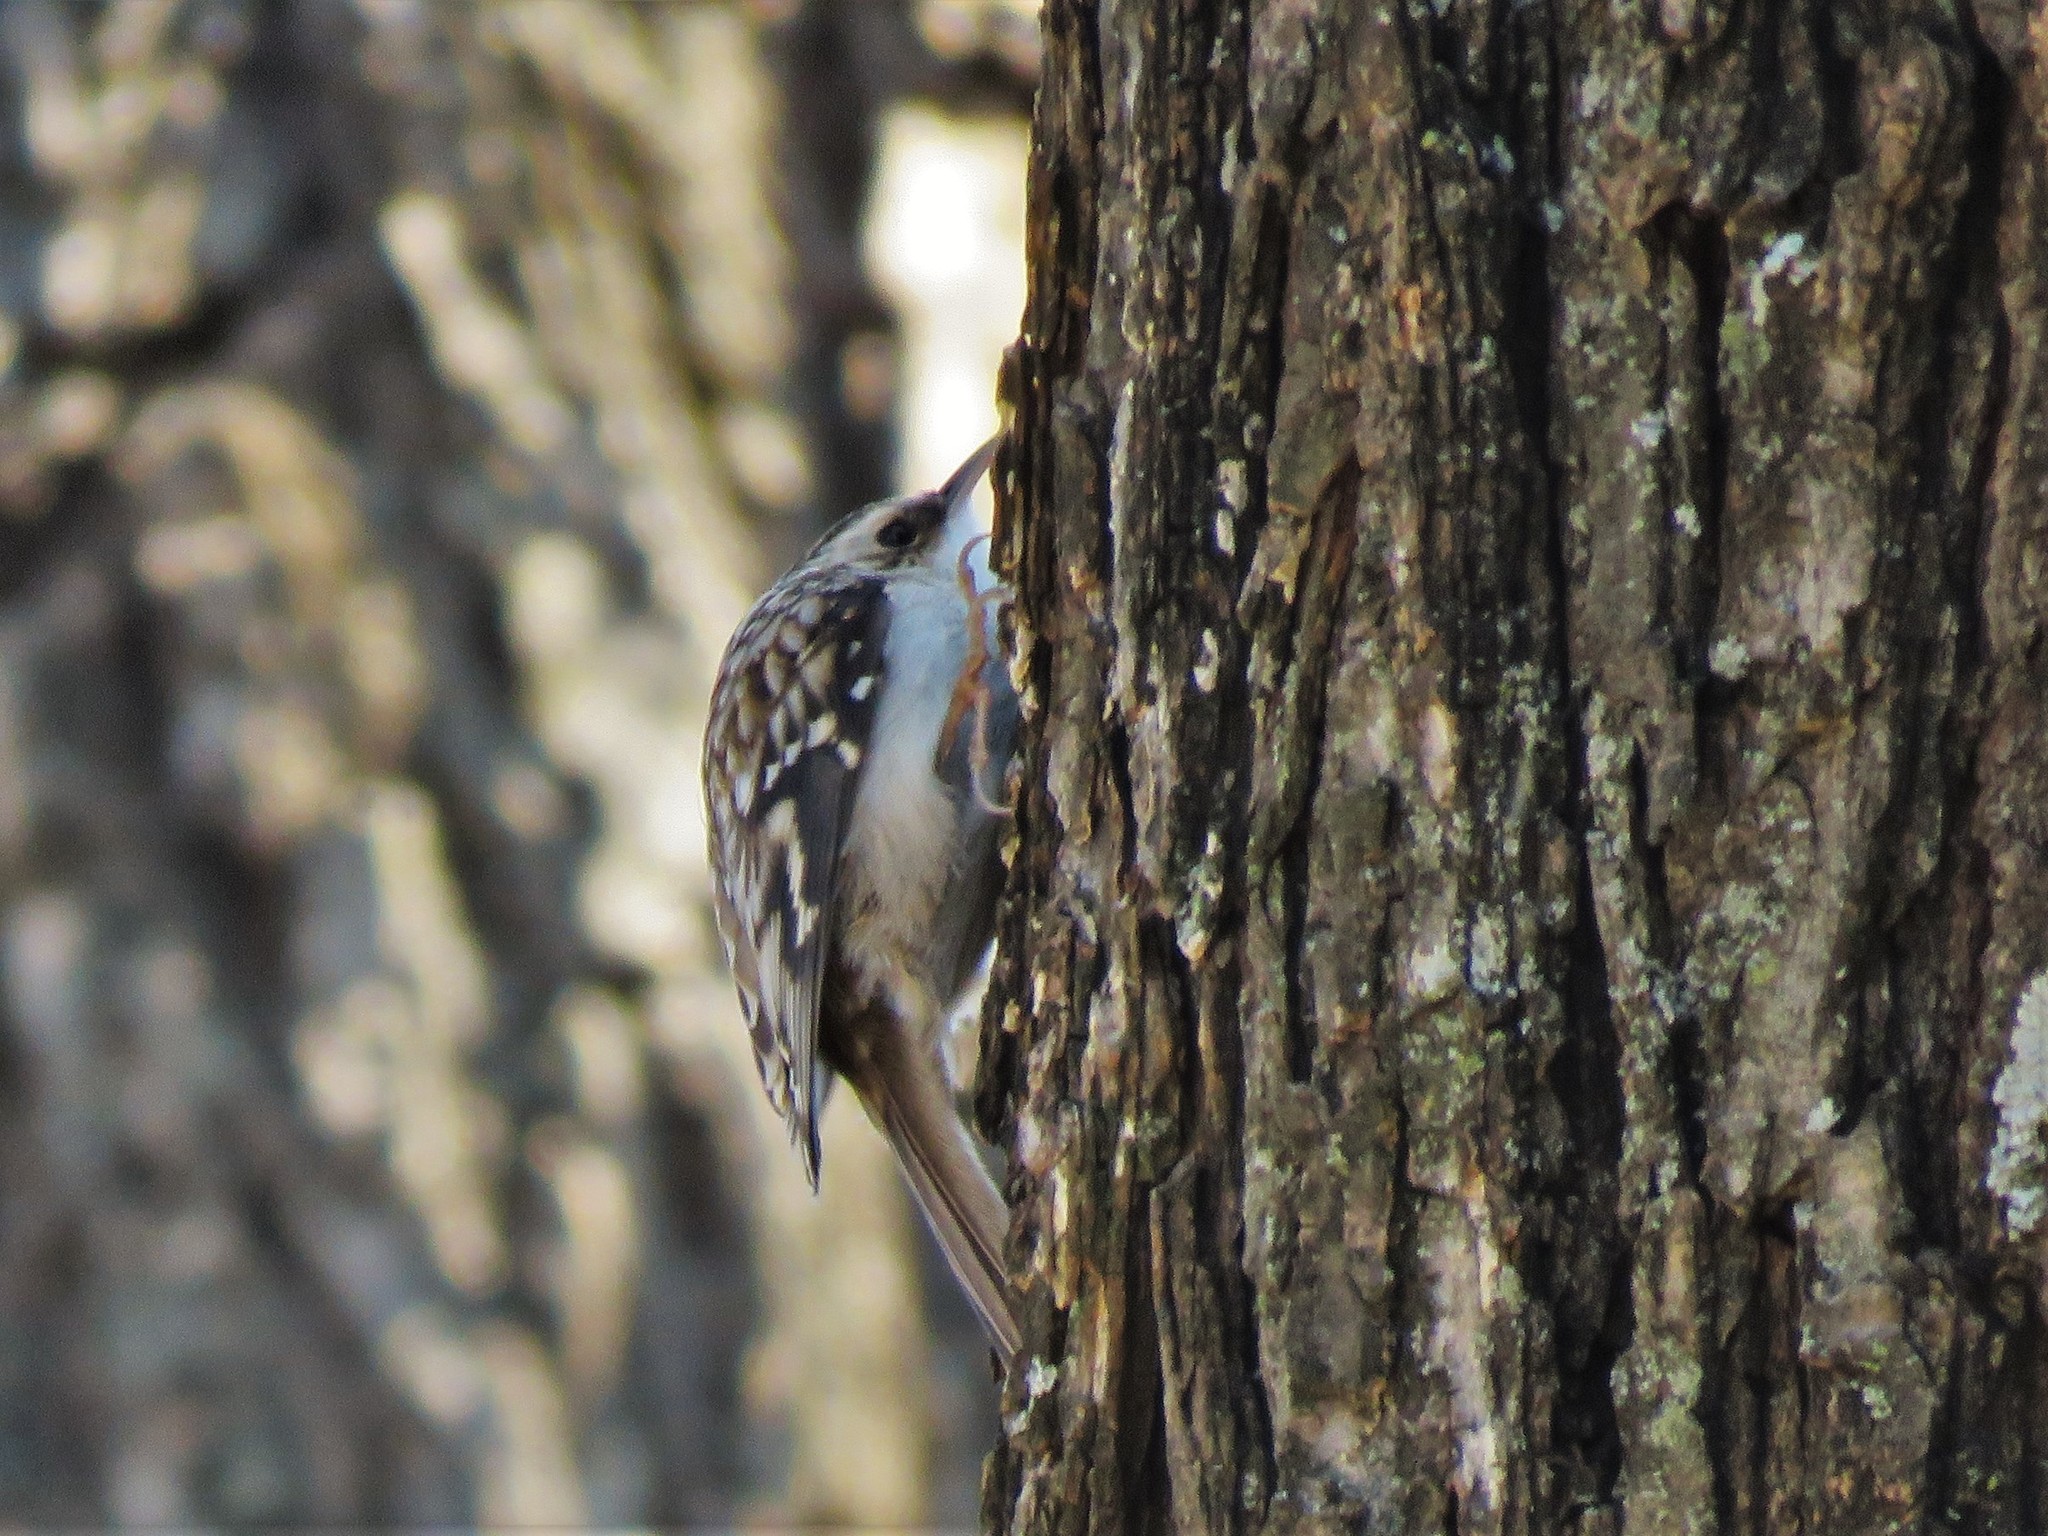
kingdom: Animalia
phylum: Chordata
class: Aves
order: Passeriformes
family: Certhiidae
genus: Certhia
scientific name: Certhia americana
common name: Brown creeper
